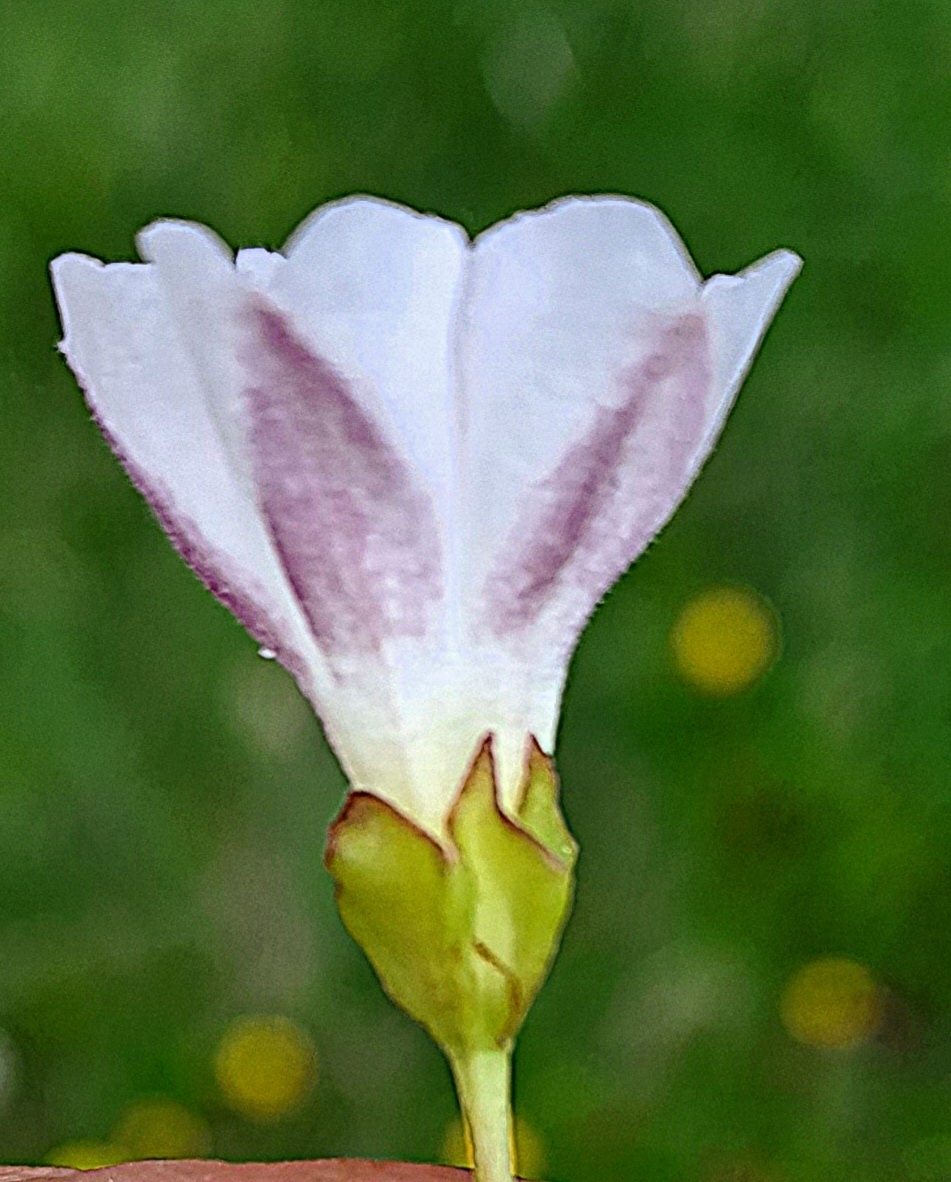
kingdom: Plantae
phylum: Tracheophyta
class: Magnoliopsida
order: Solanales
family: Convolvulaceae
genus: Falkia
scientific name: Falkia repens
